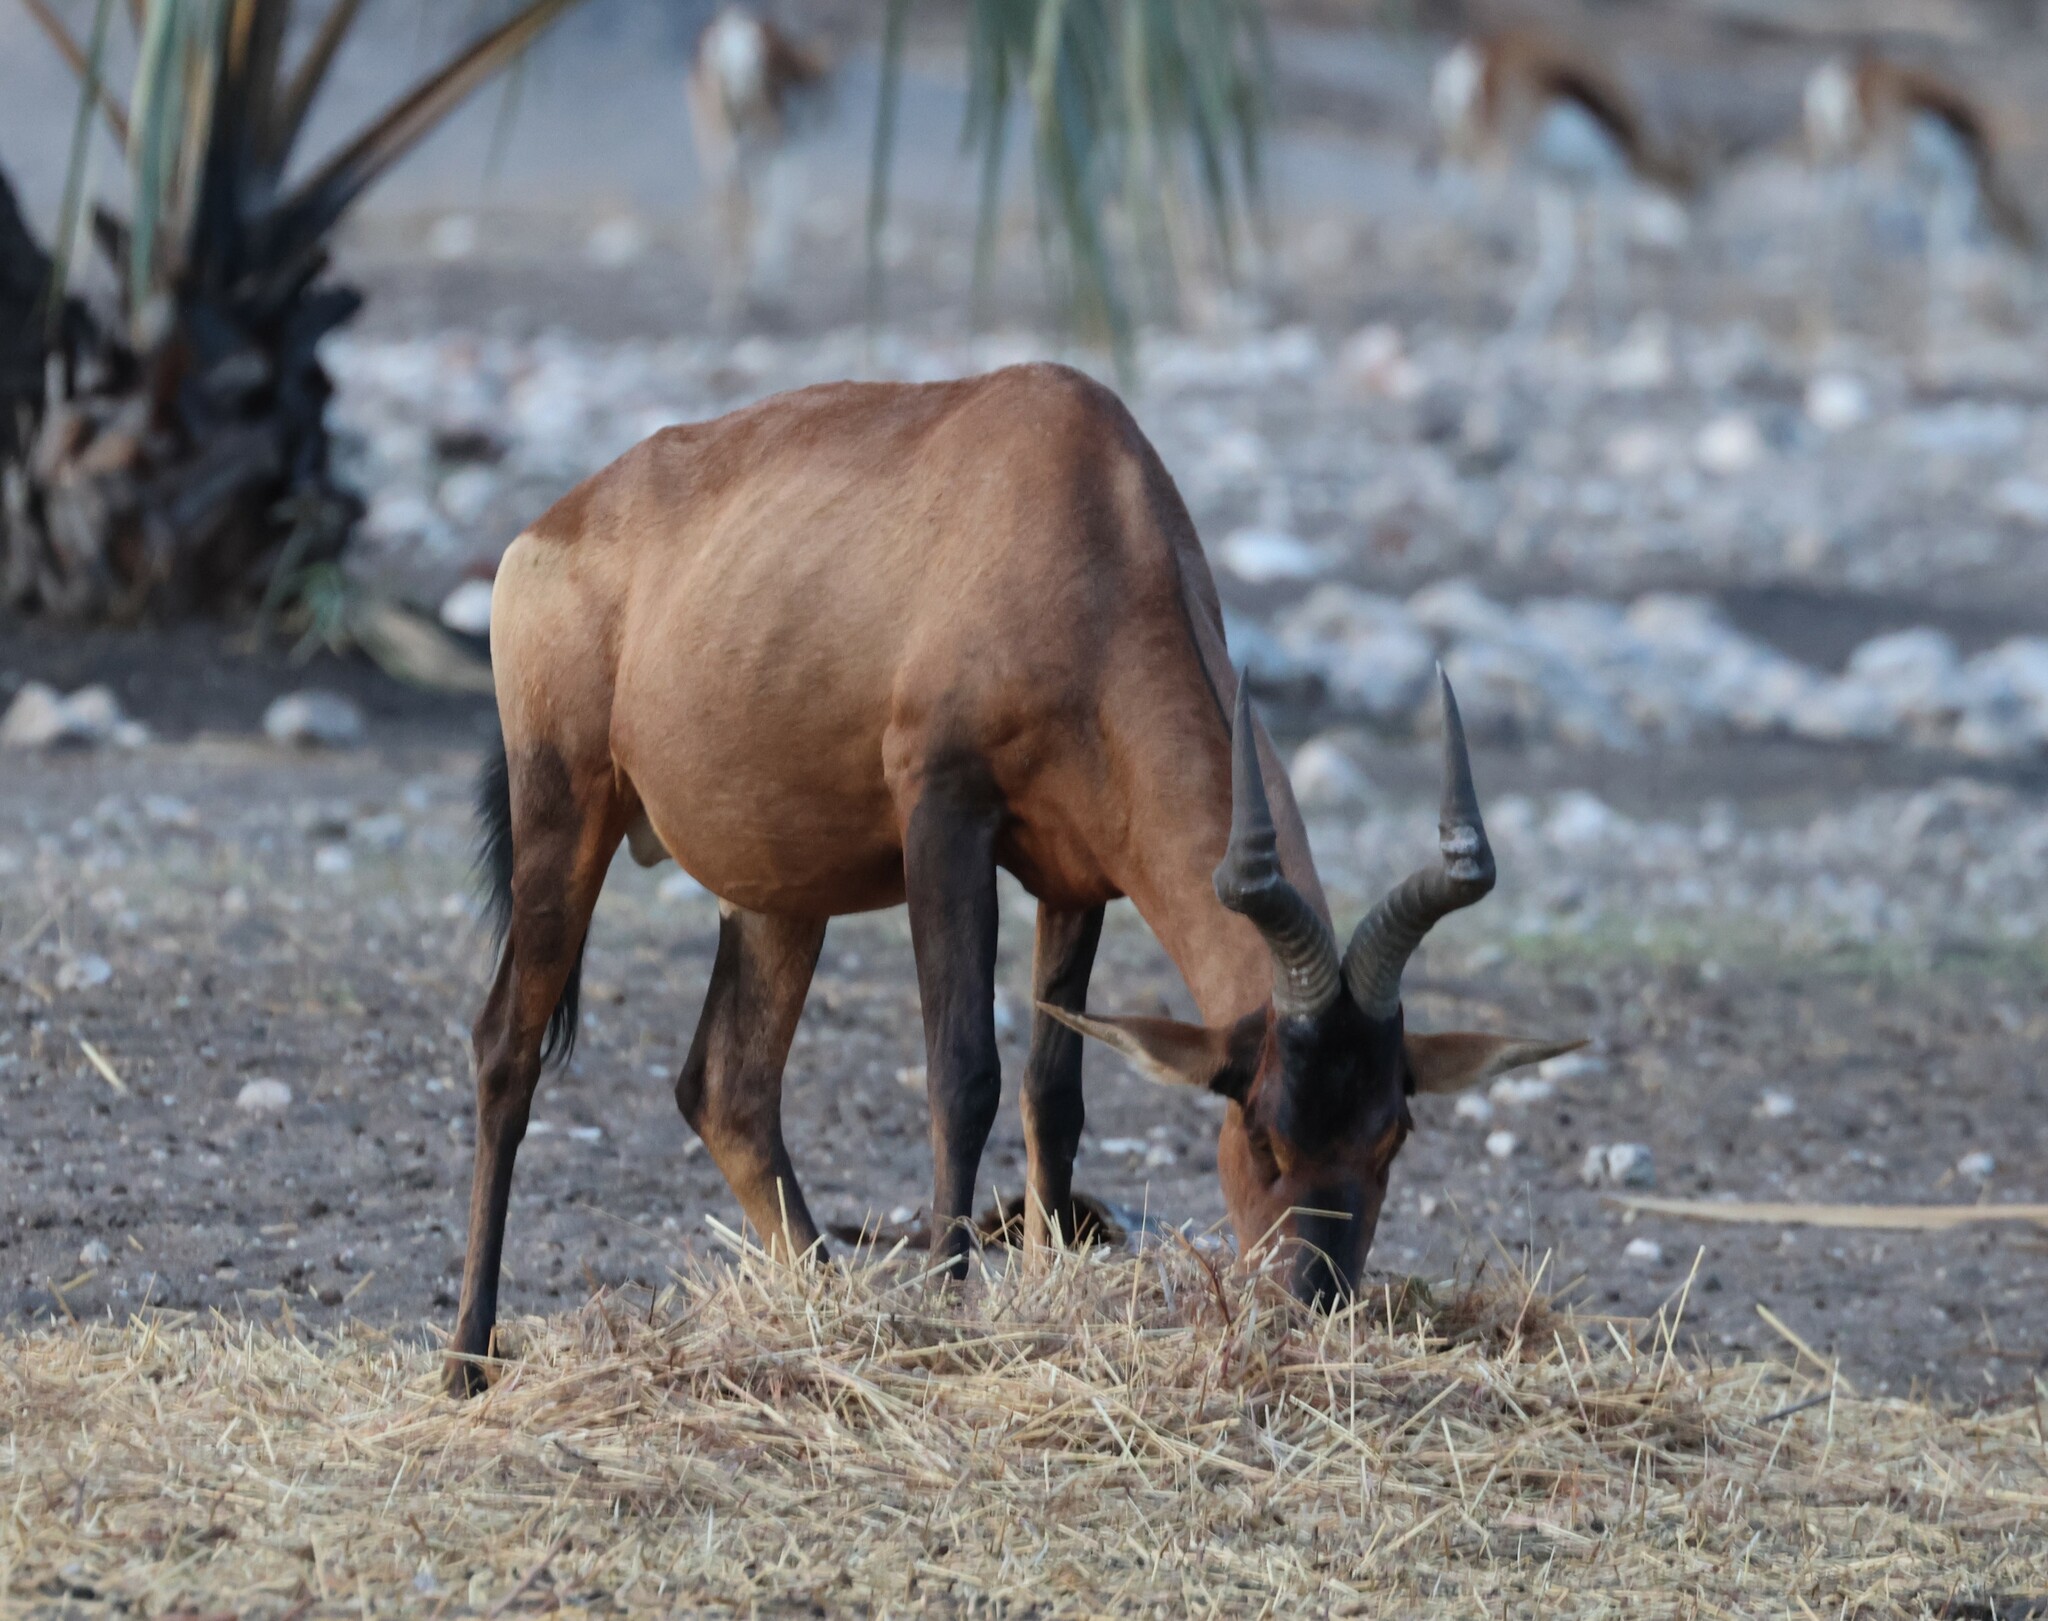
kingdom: Animalia
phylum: Chordata
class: Mammalia
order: Artiodactyla
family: Bovidae
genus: Alcelaphus
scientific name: Alcelaphus caama
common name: Red hartebeest
